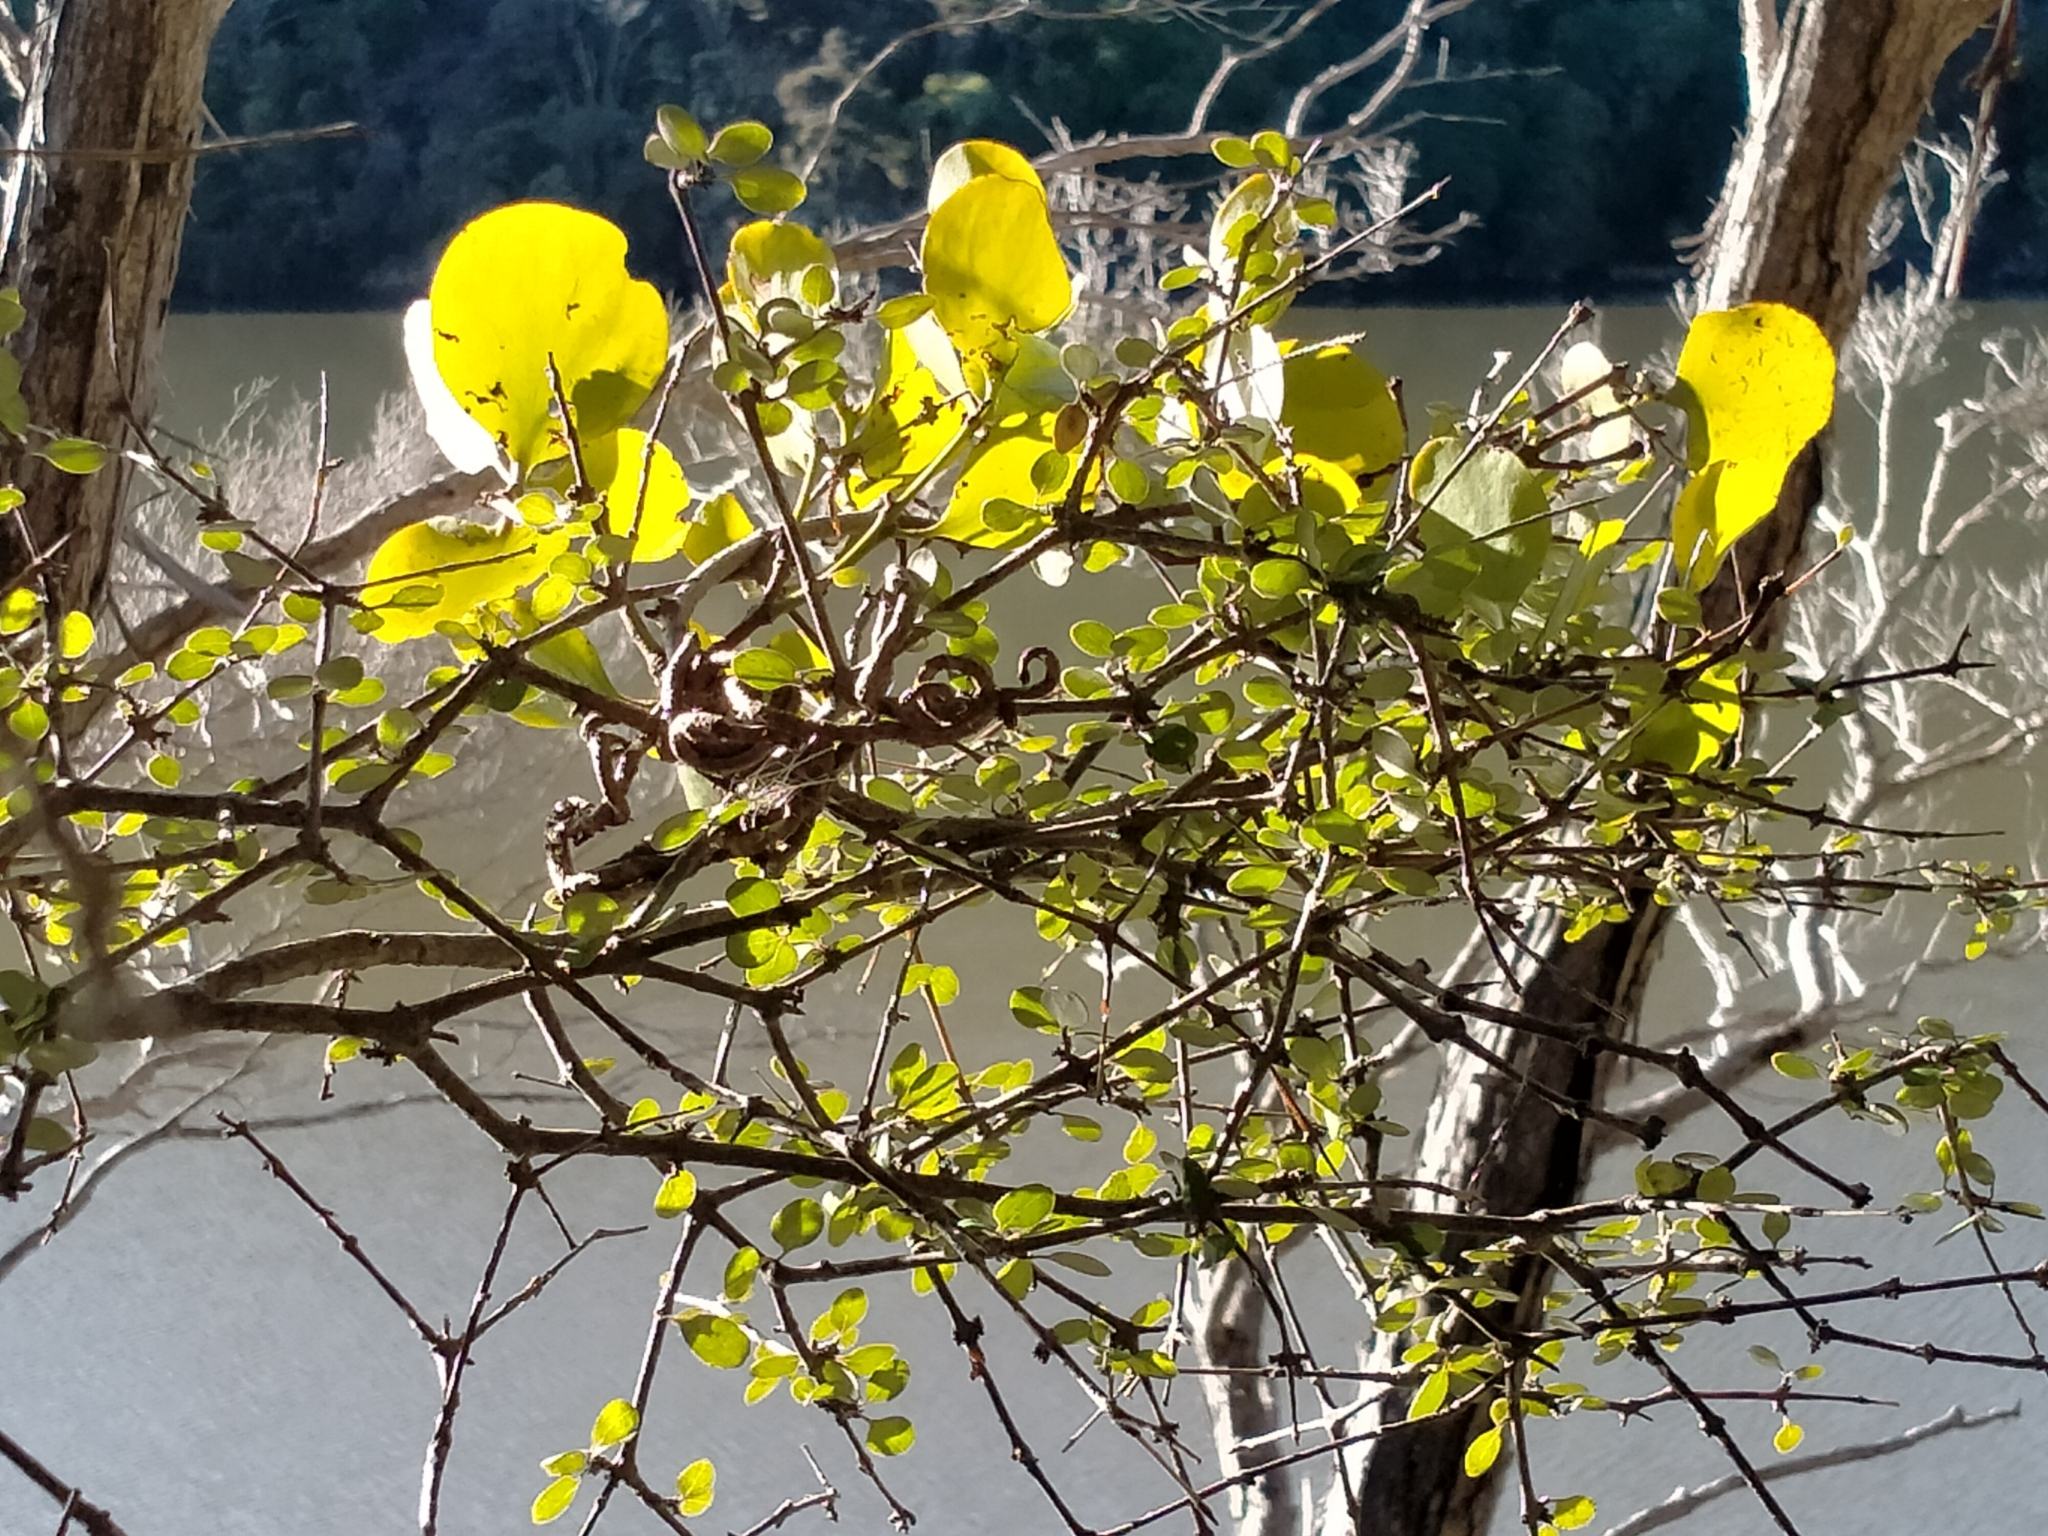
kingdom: Plantae
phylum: Tracheophyta
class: Magnoliopsida
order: Santalales
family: Loranthaceae
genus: Ileostylus
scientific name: Ileostylus micranthus
